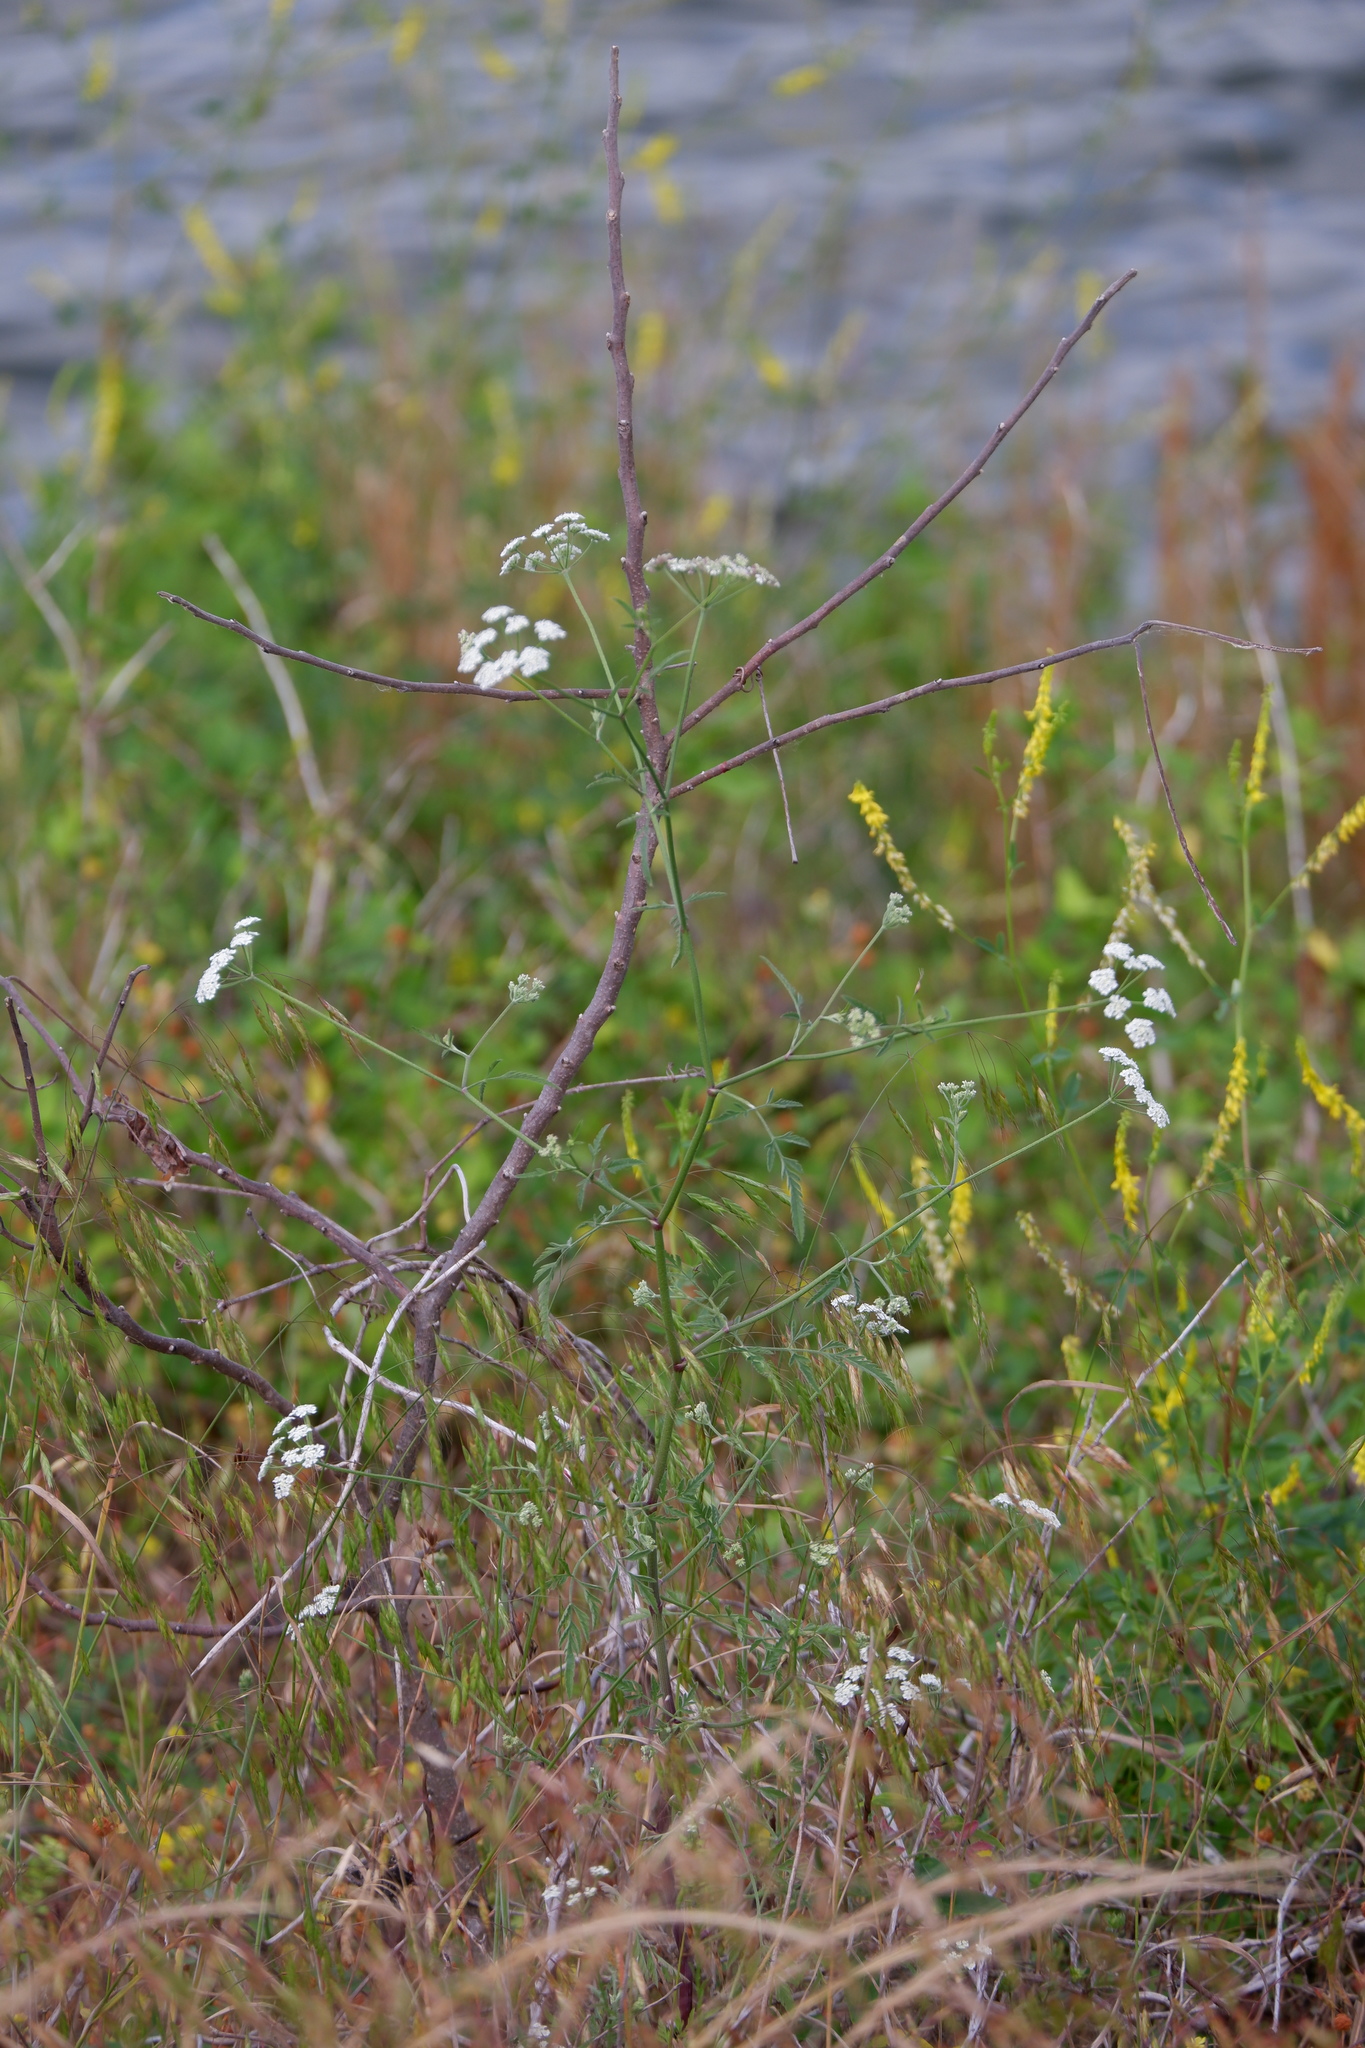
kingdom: Plantae
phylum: Tracheophyta
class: Magnoliopsida
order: Apiales
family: Apiaceae
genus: Torilis
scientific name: Torilis arvensis
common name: Spreading hedge-parsley
